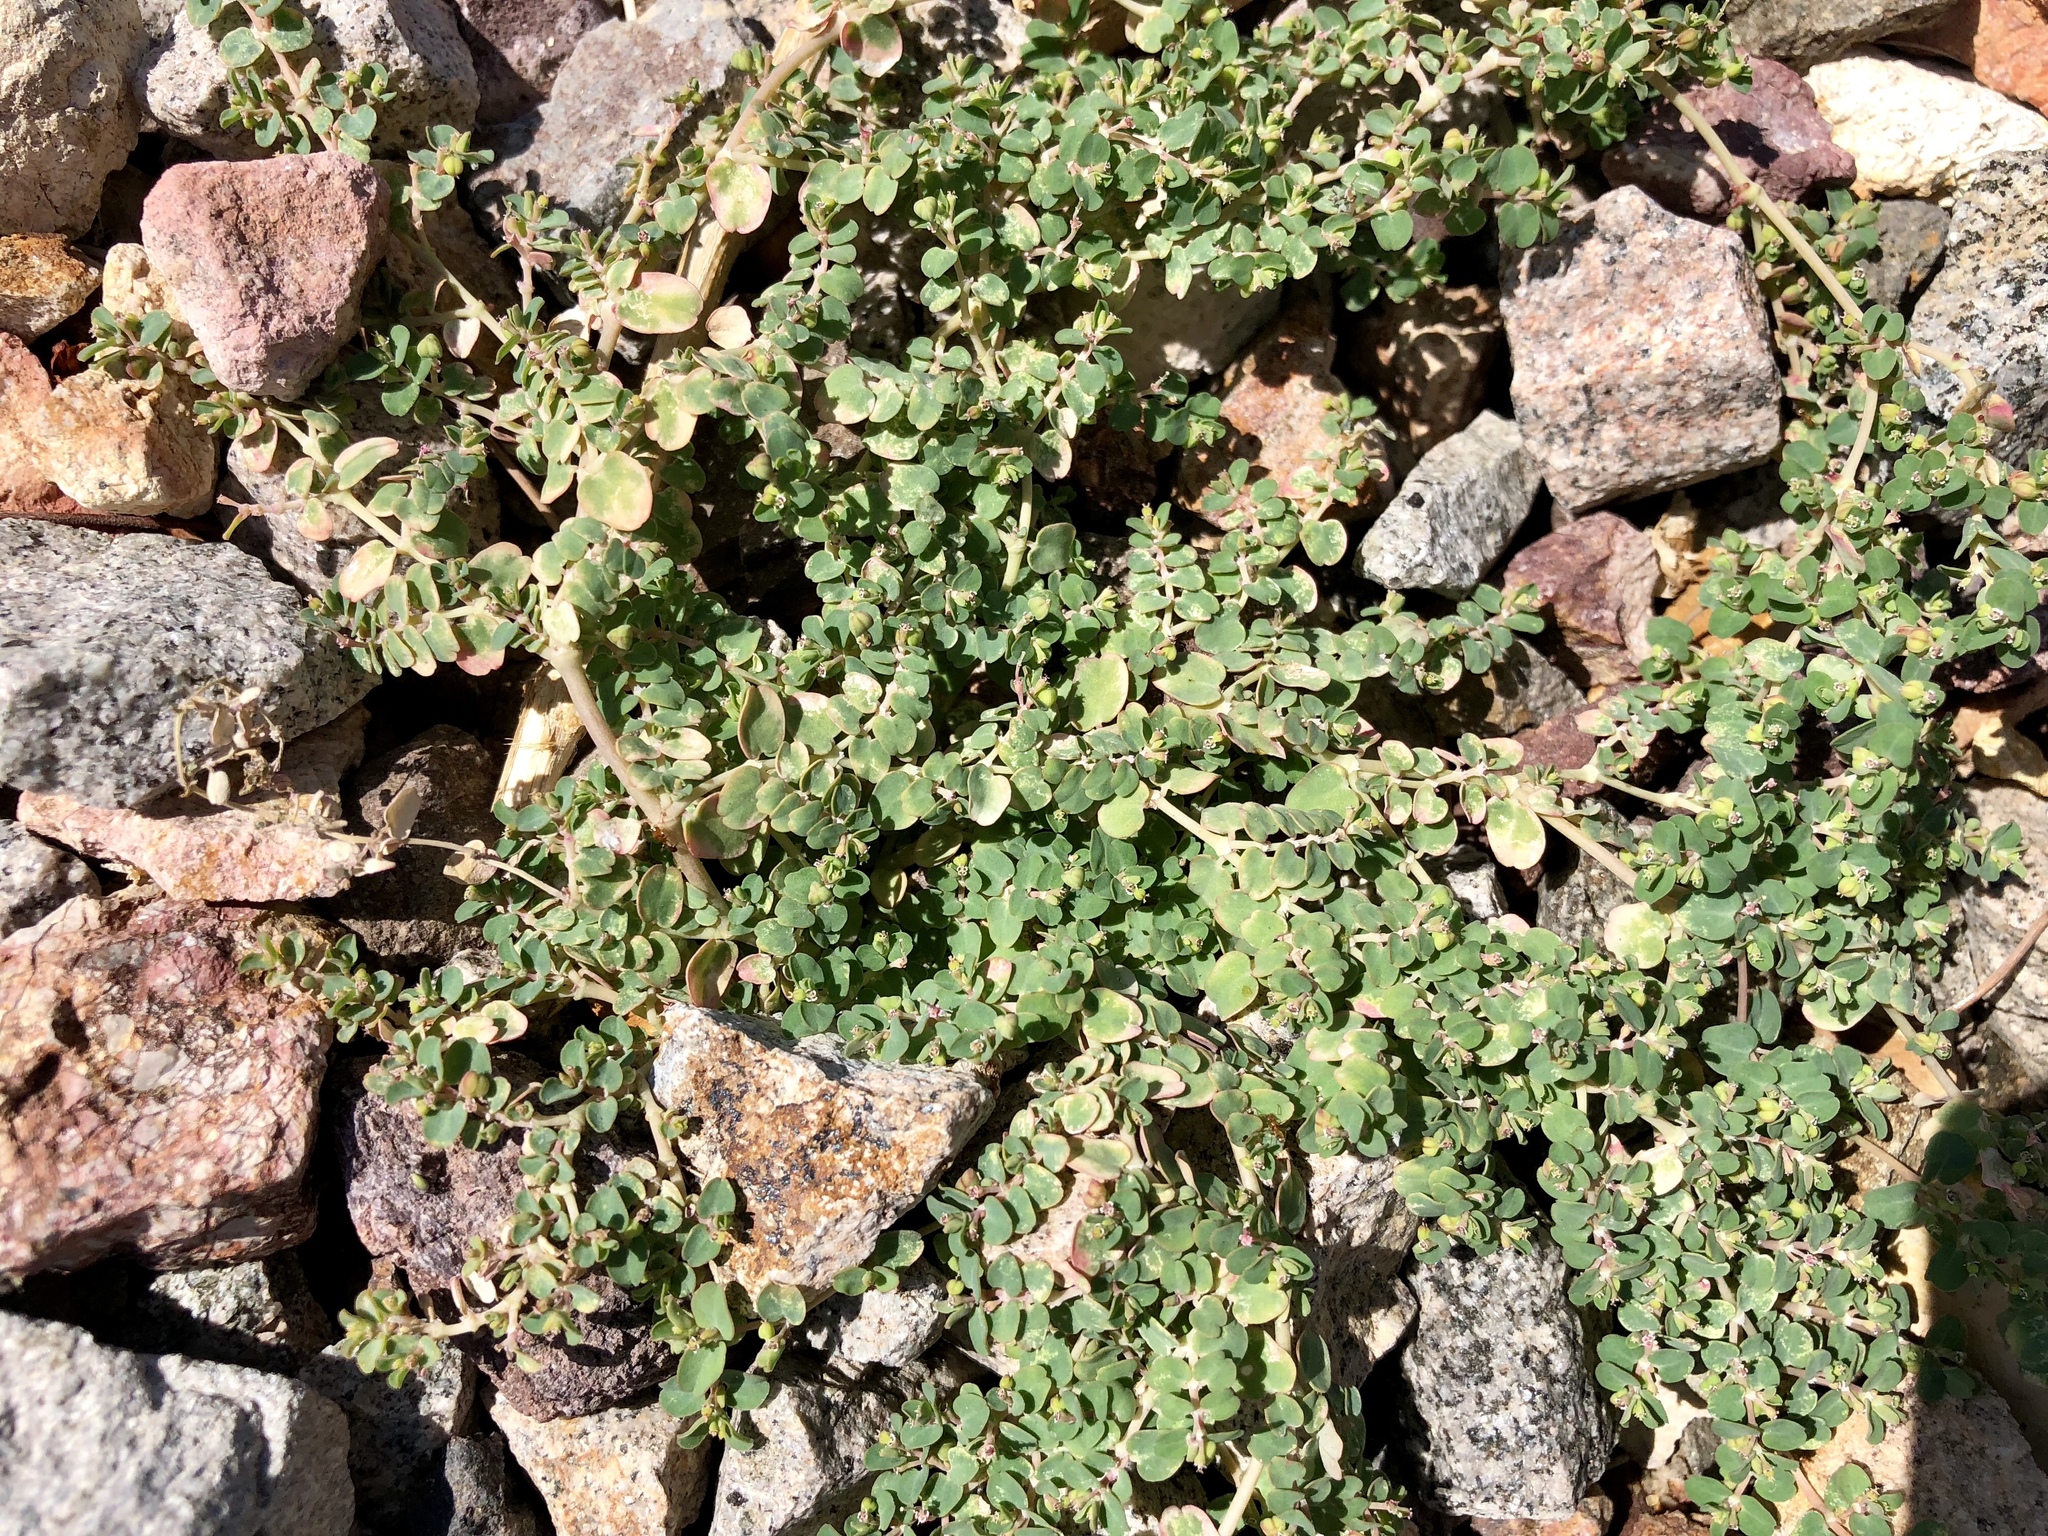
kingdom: Plantae
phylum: Tracheophyta
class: Magnoliopsida
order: Malpighiales
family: Euphorbiaceae
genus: Euphorbia
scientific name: Euphorbia serpens
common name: Matted sandmat
